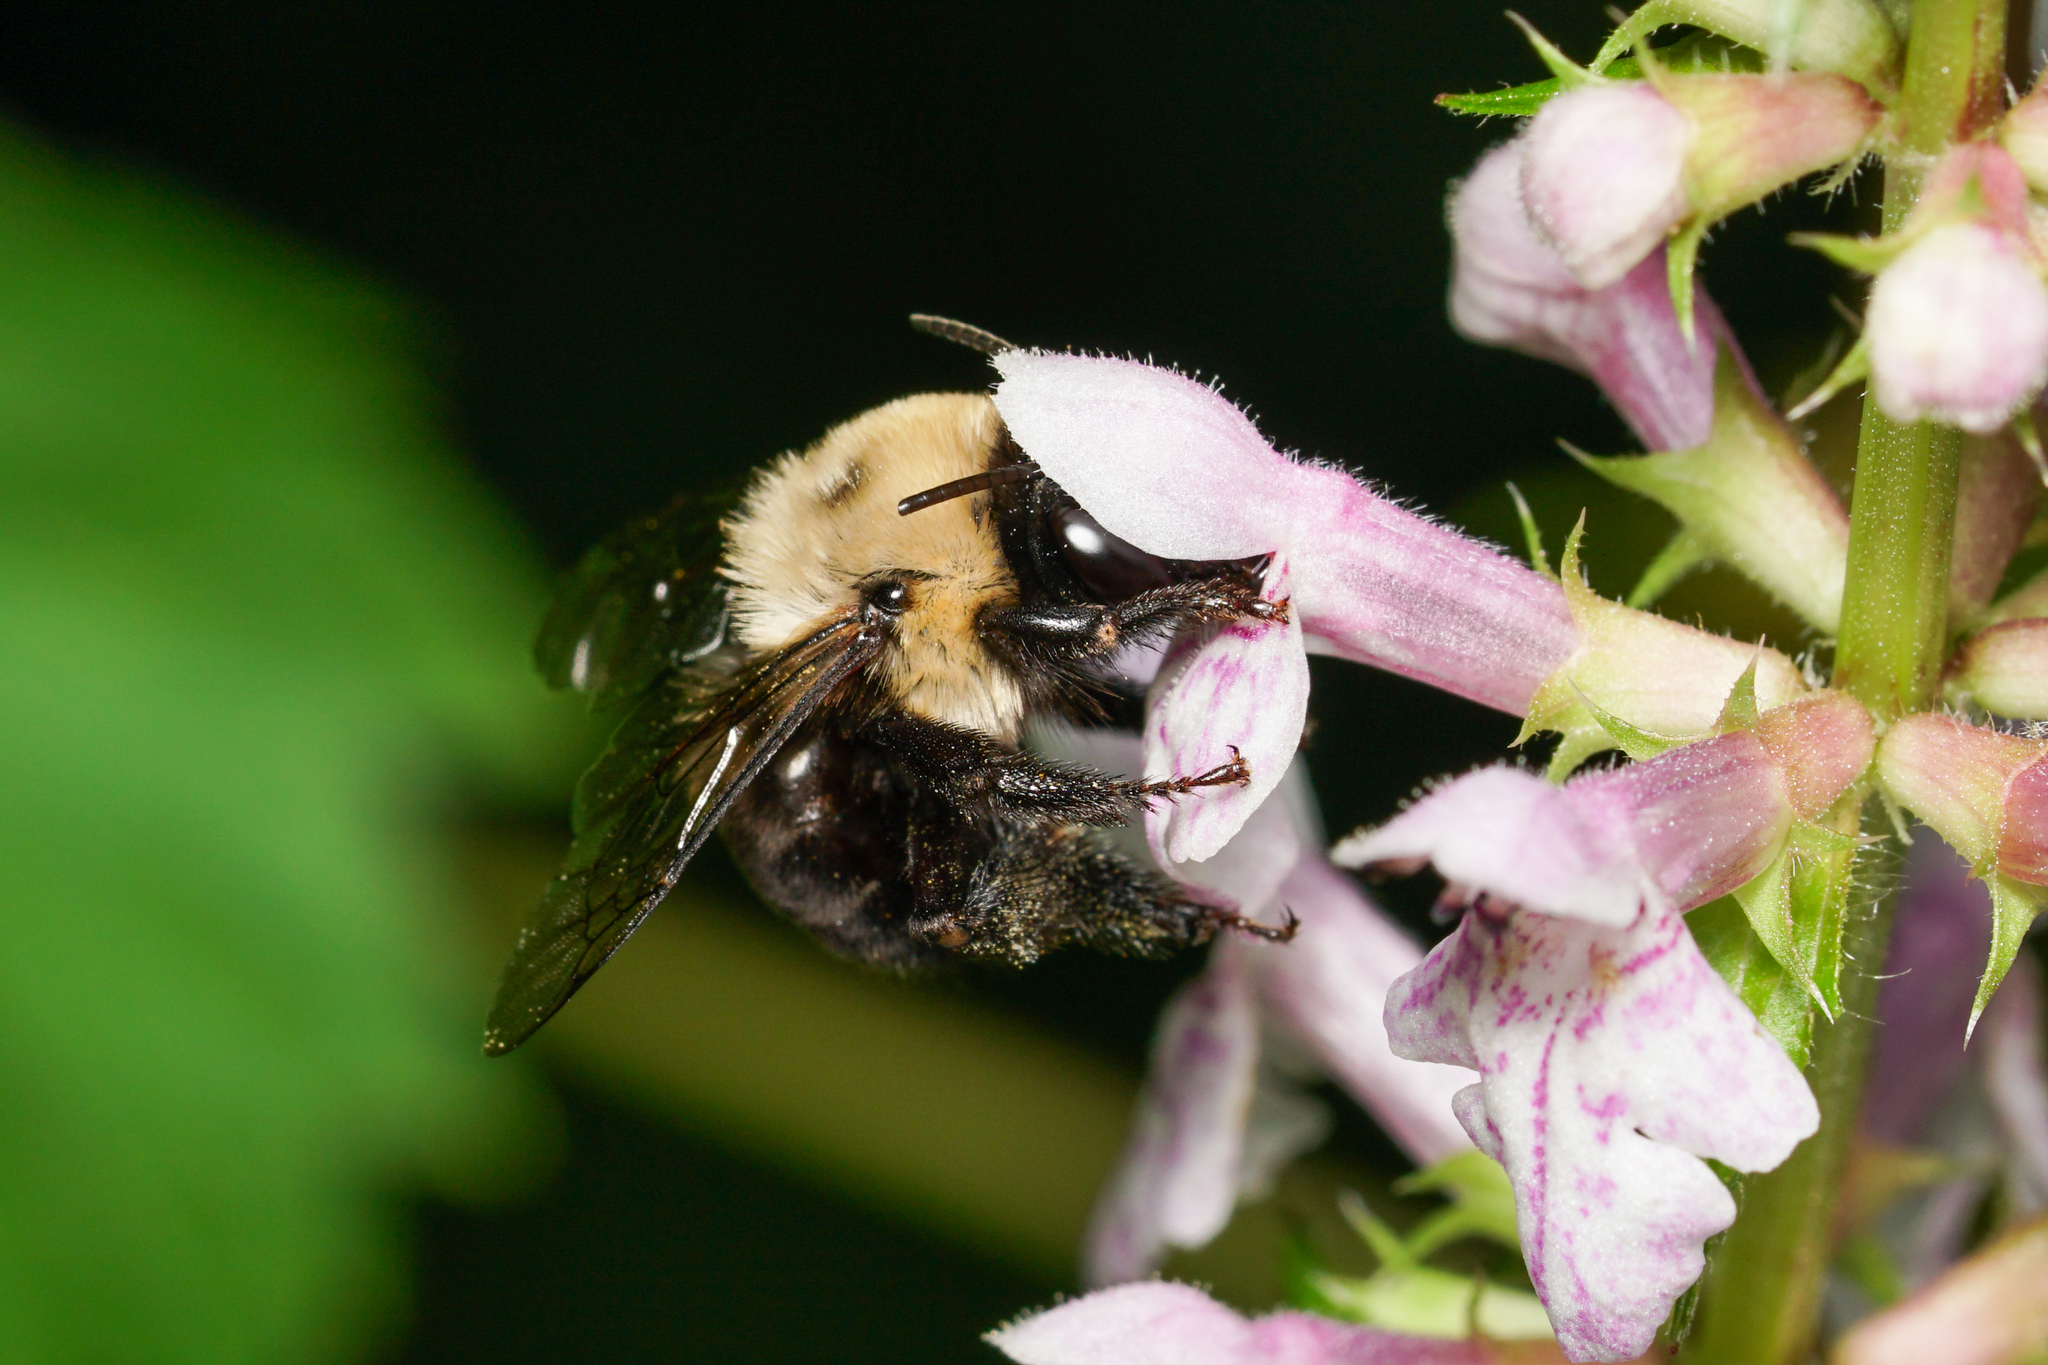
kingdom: Animalia
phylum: Arthropoda
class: Insecta
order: Hymenoptera
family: Apidae
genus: Anthophora
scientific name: Anthophora abrupta
